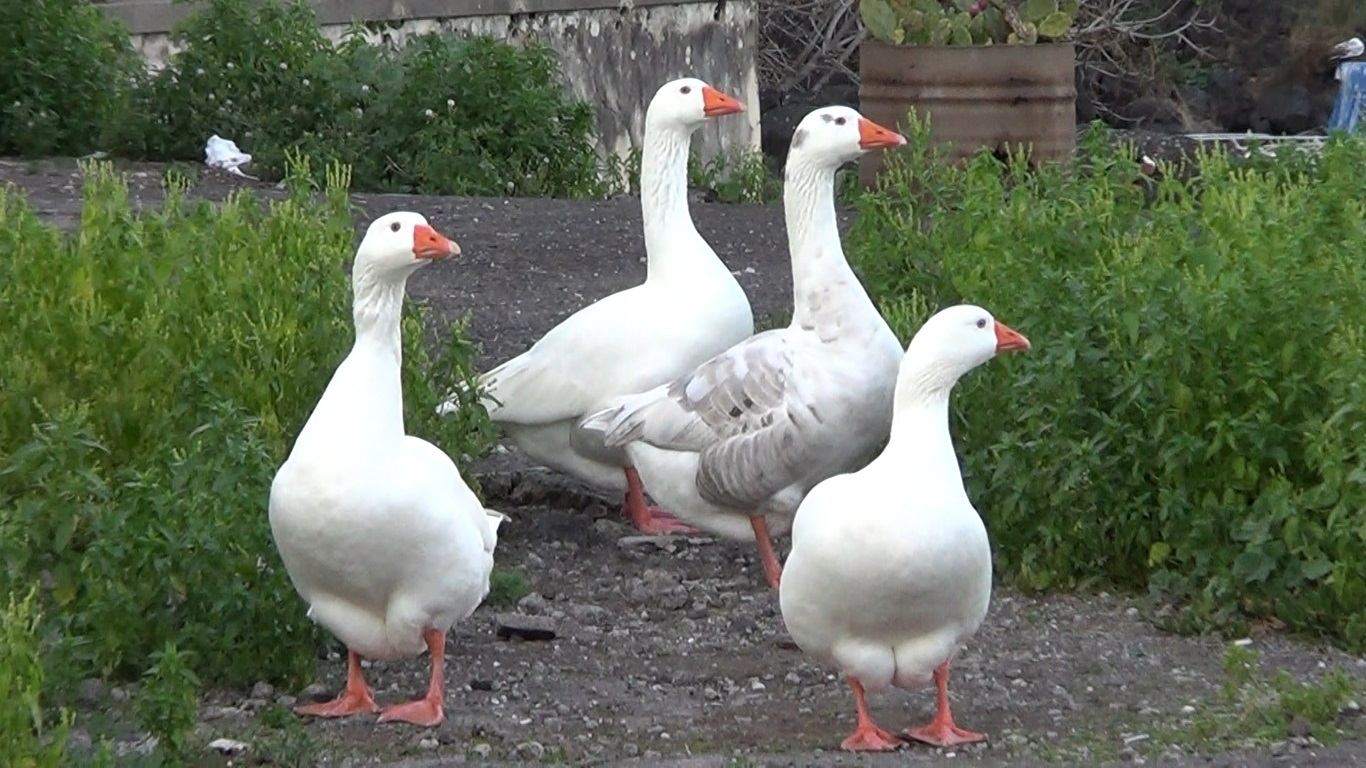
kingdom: Animalia
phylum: Chordata
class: Aves
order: Anseriformes
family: Anatidae
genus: Anser
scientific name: Anser anser
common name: Greylag goose
